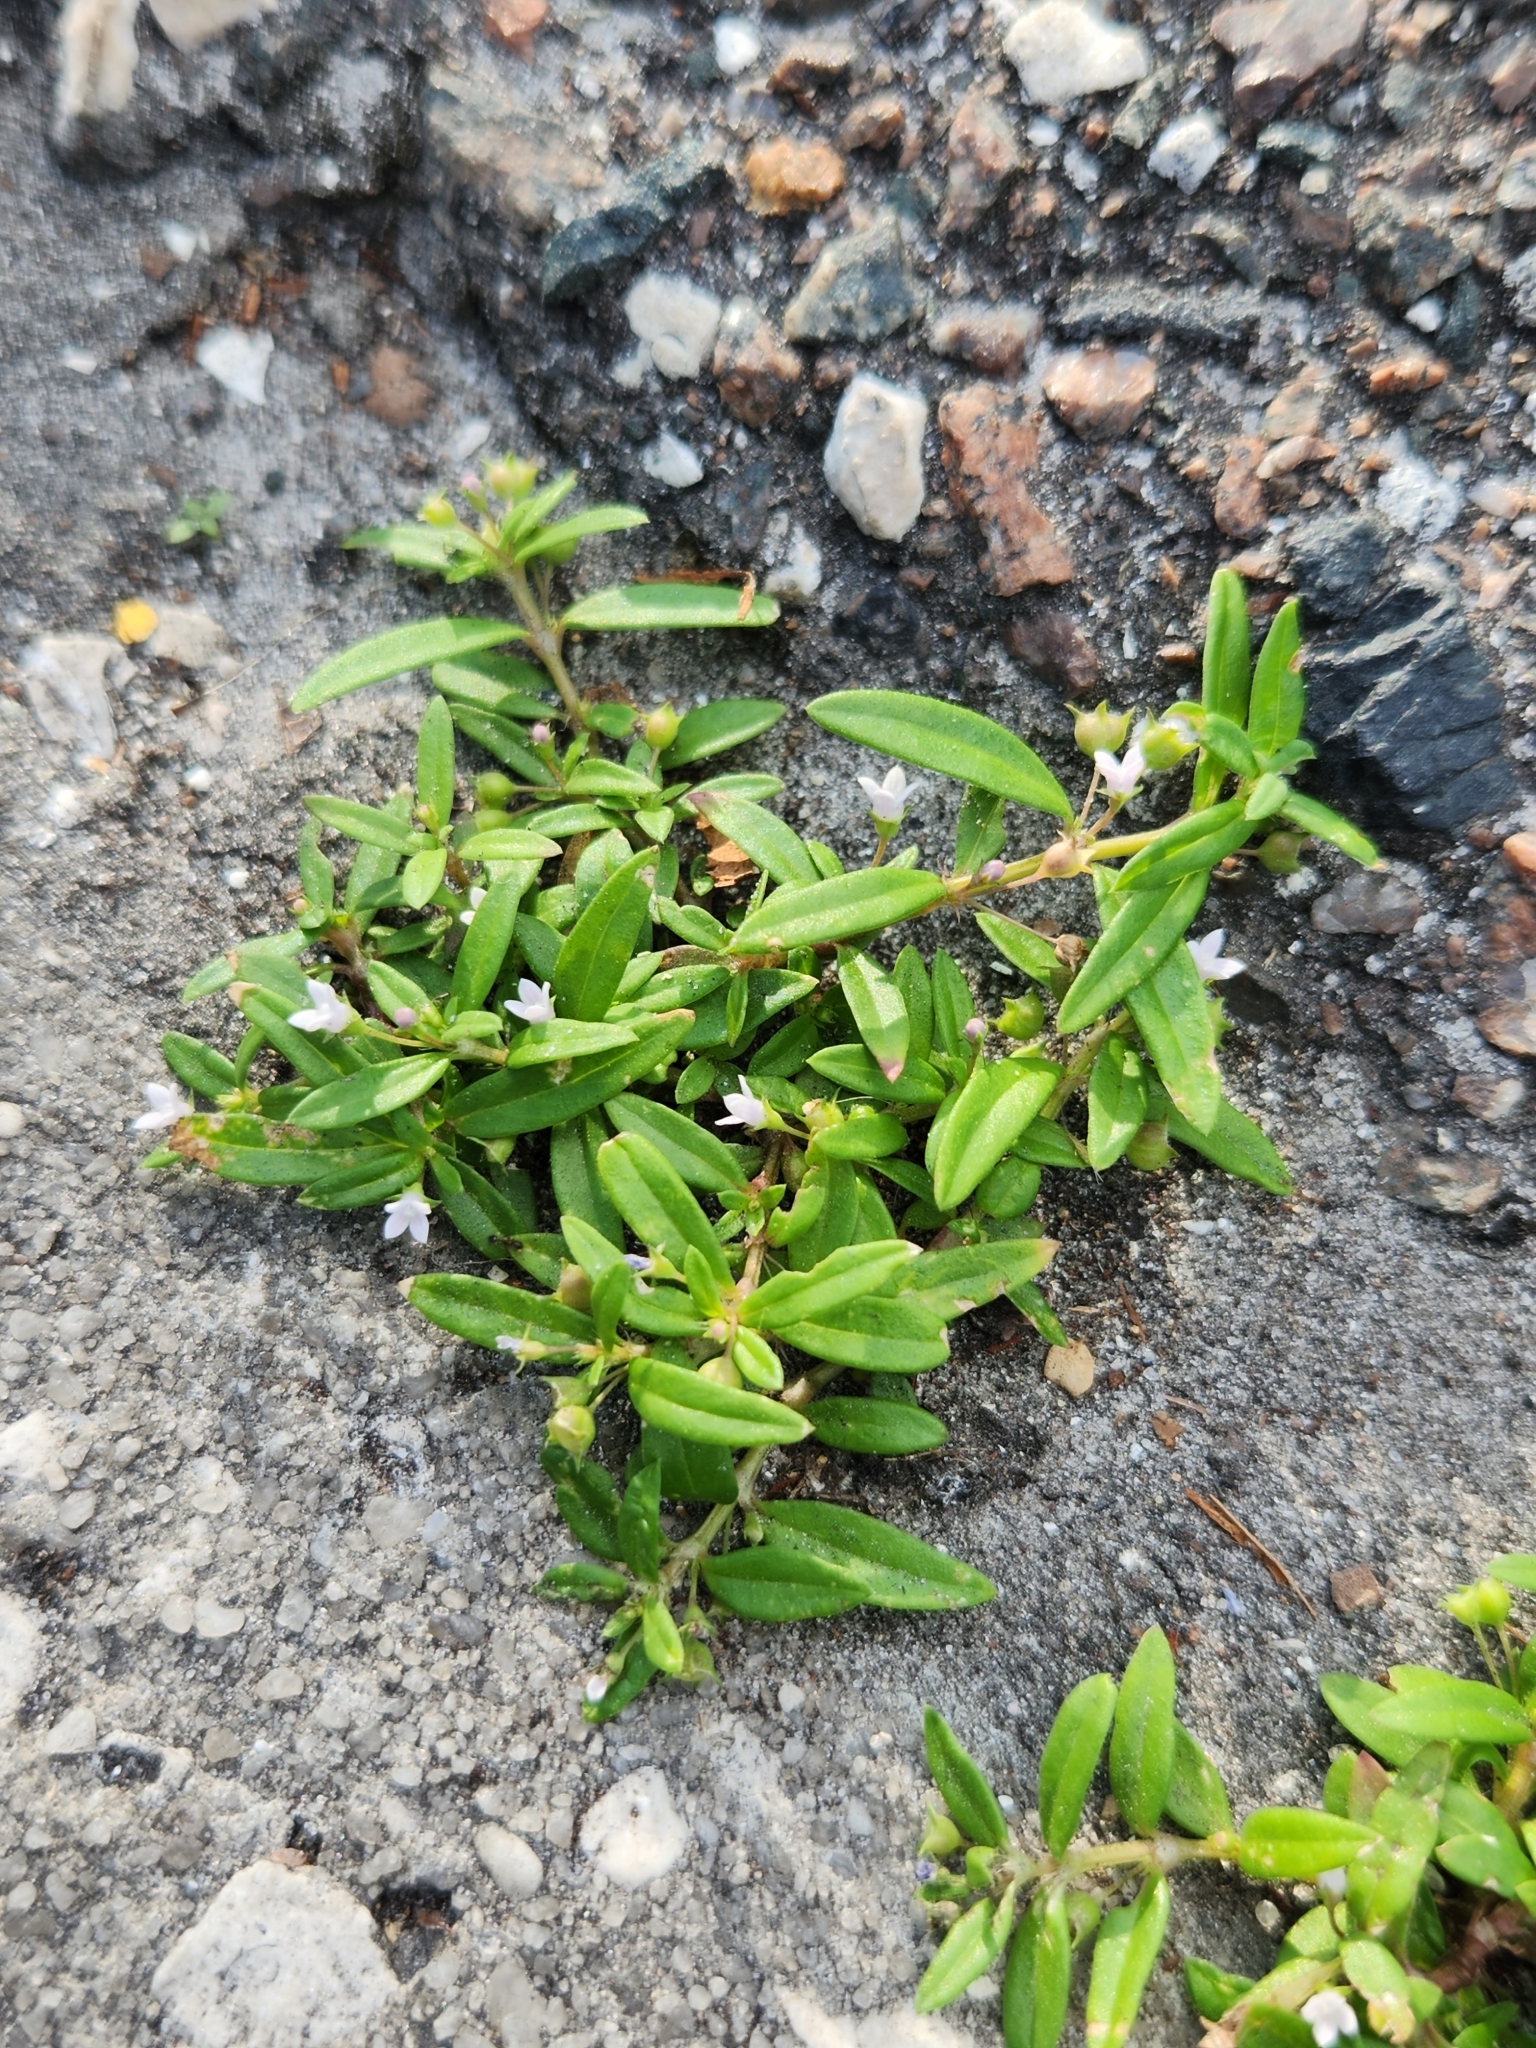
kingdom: Plantae
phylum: Tracheophyta
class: Magnoliopsida
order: Gentianales
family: Rubiaceae
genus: Oldenlandia
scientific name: Oldenlandia corymbosa
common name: Flat-top mille graines
